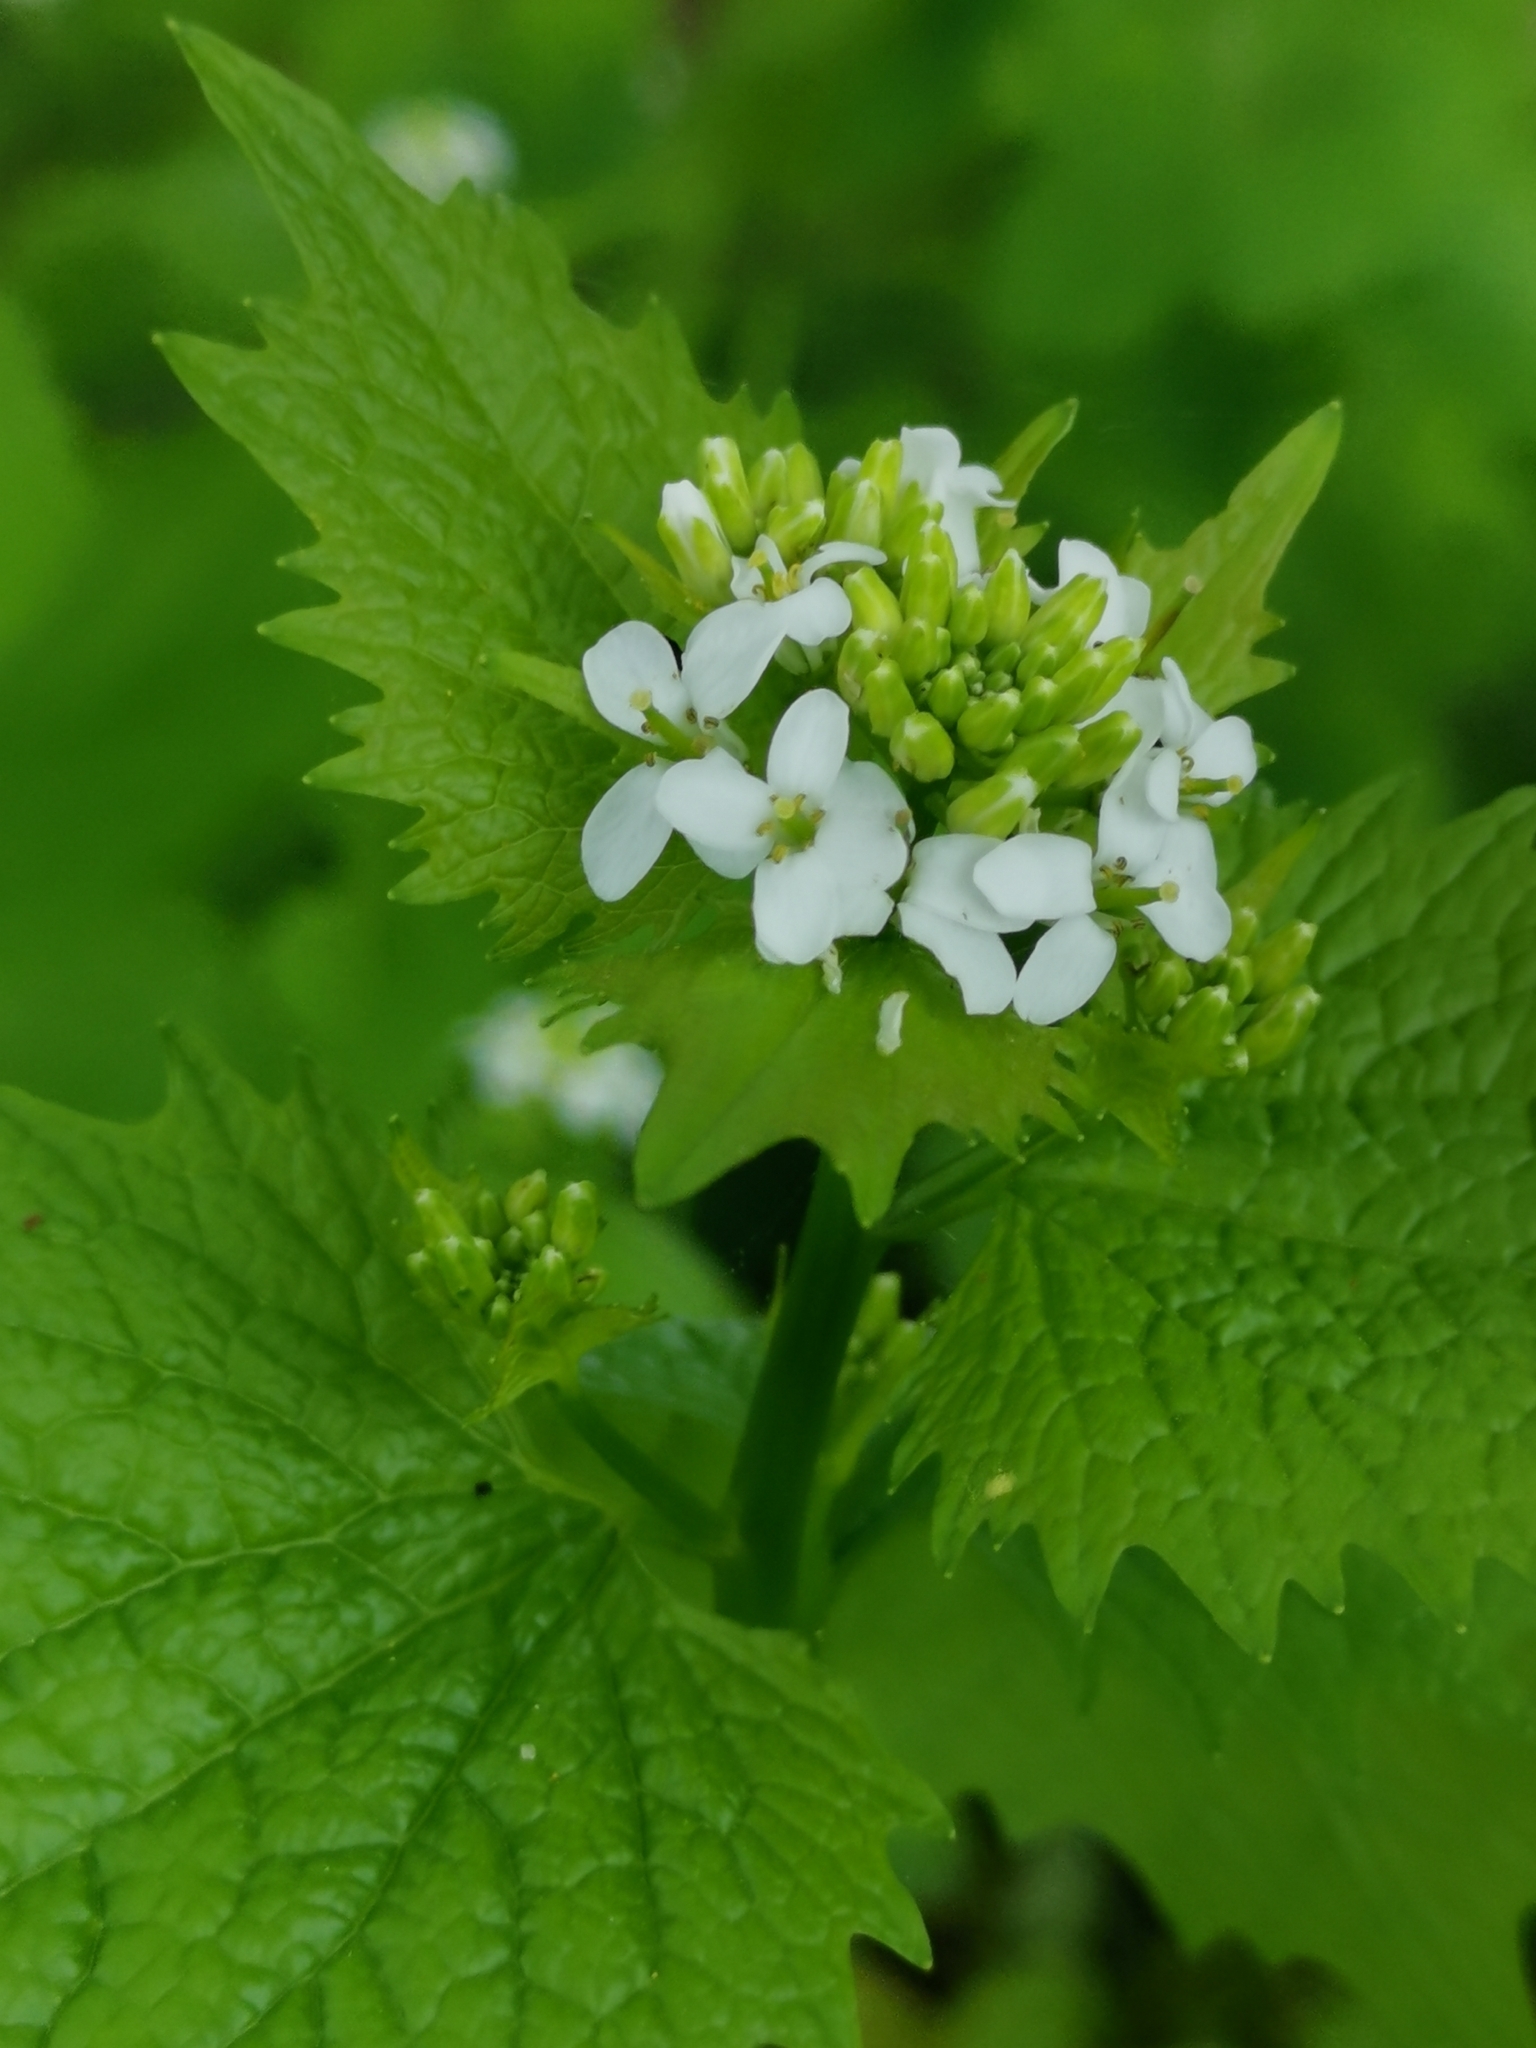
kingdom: Plantae
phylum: Tracheophyta
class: Magnoliopsida
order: Brassicales
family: Brassicaceae
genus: Alliaria
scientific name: Alliaria petiolata
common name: Garlic mustard
